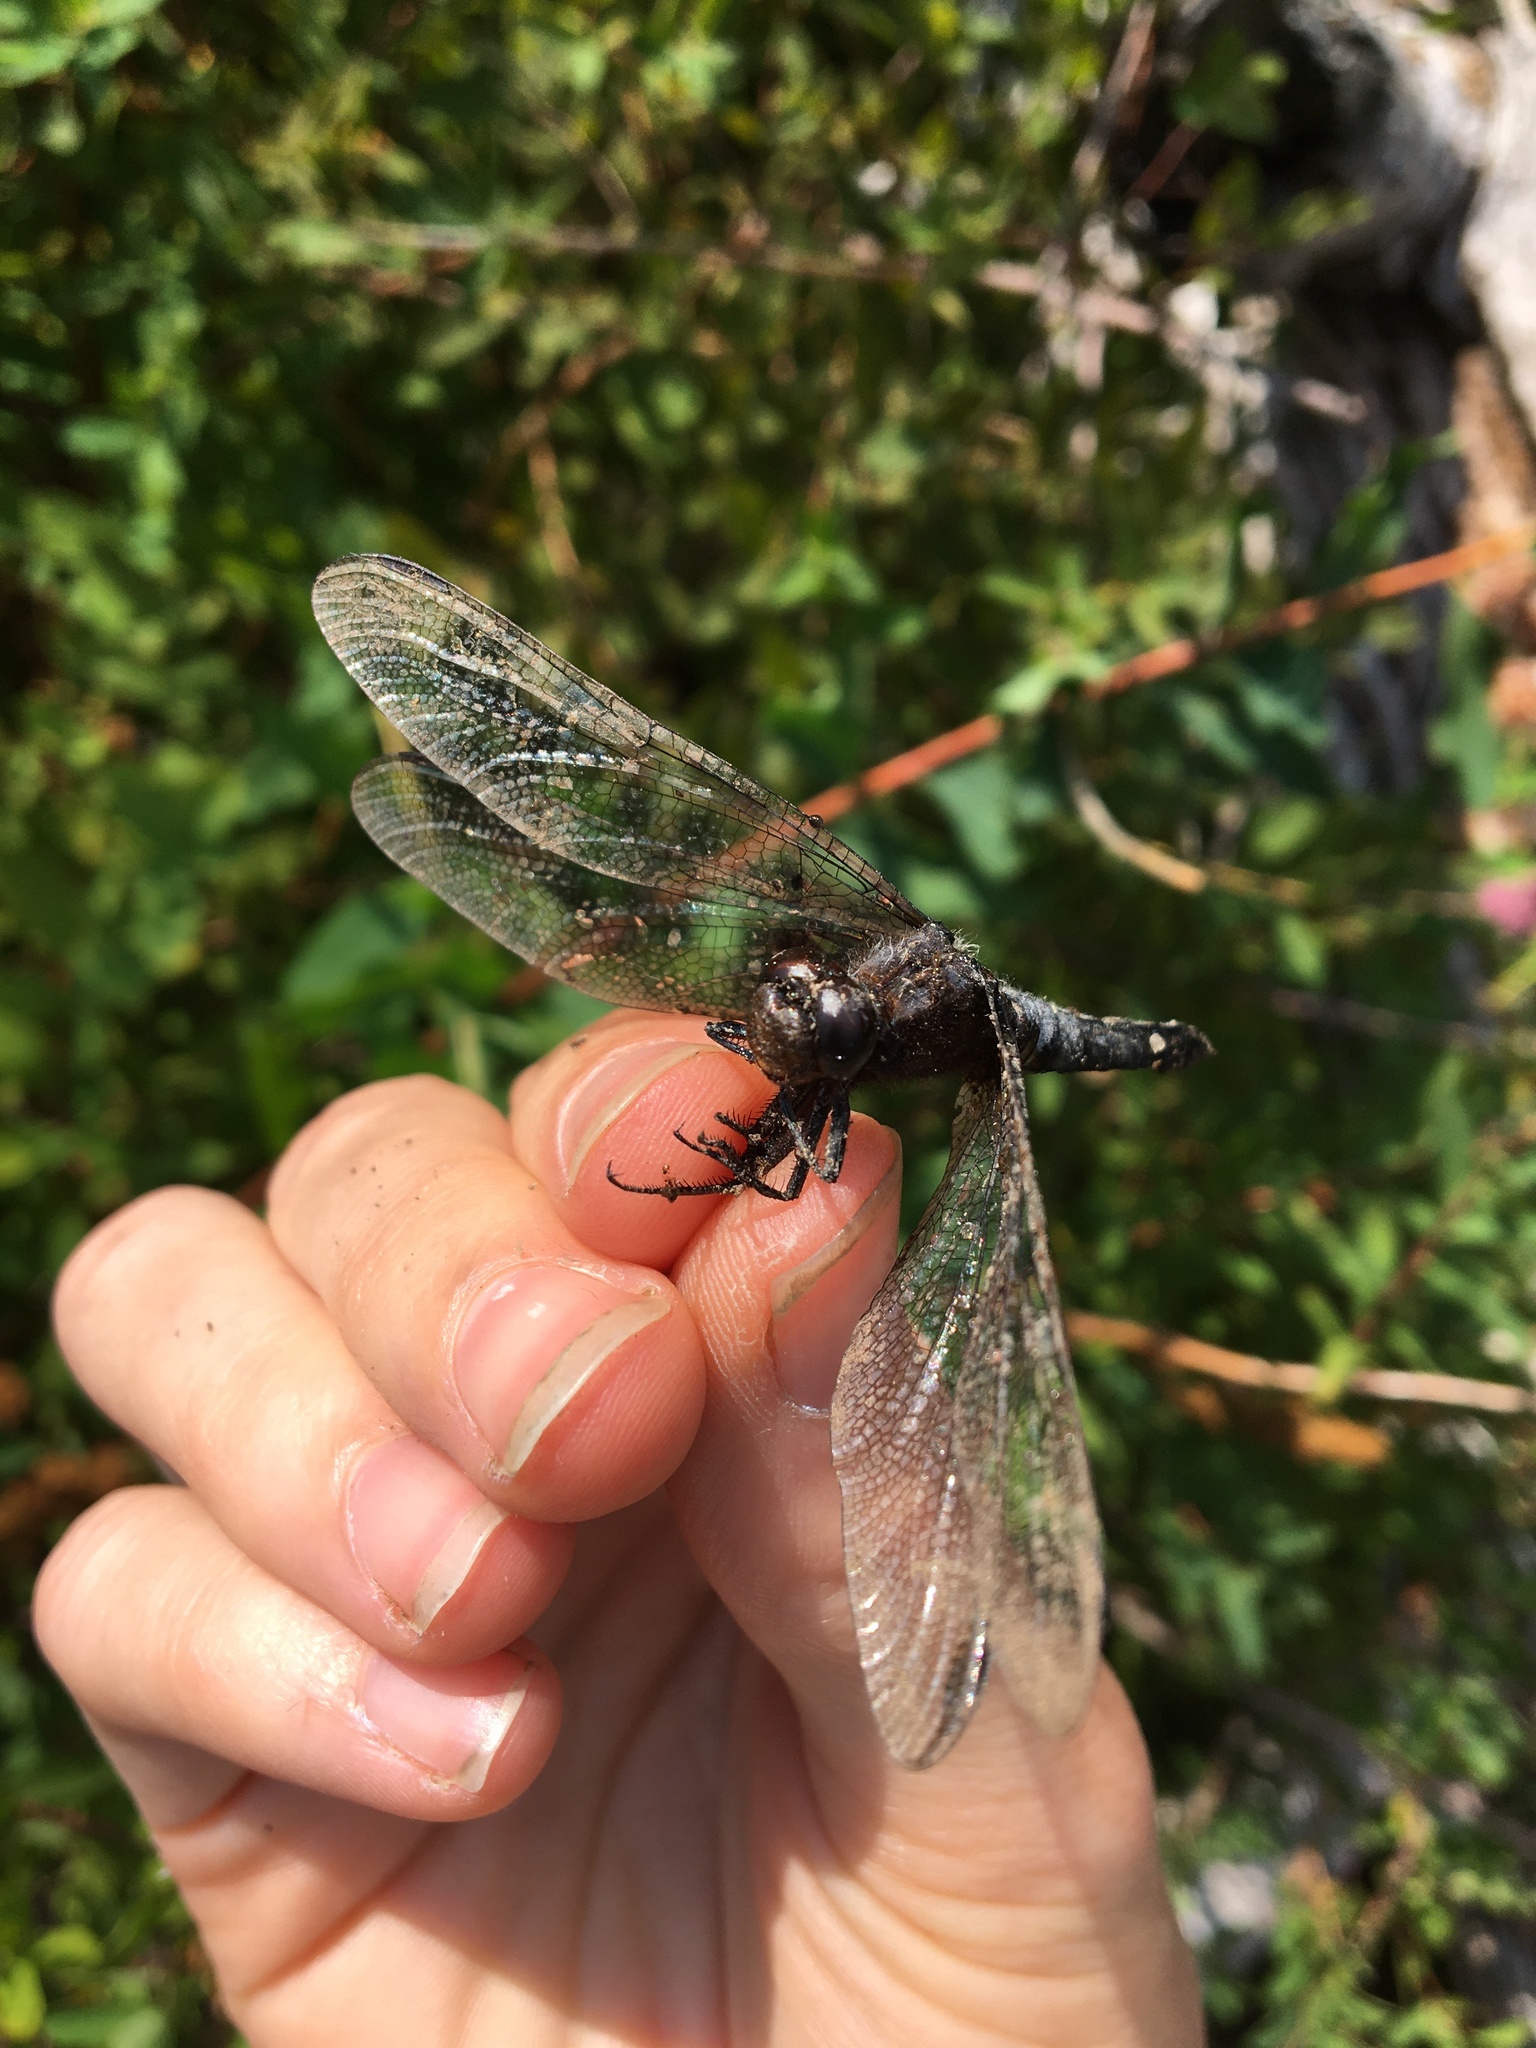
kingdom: Animalia
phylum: Arthropoda
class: Insecta
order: Odonata
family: Libellulidae
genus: Ladona
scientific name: Ladona julia
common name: Chalk-fronted corporal
